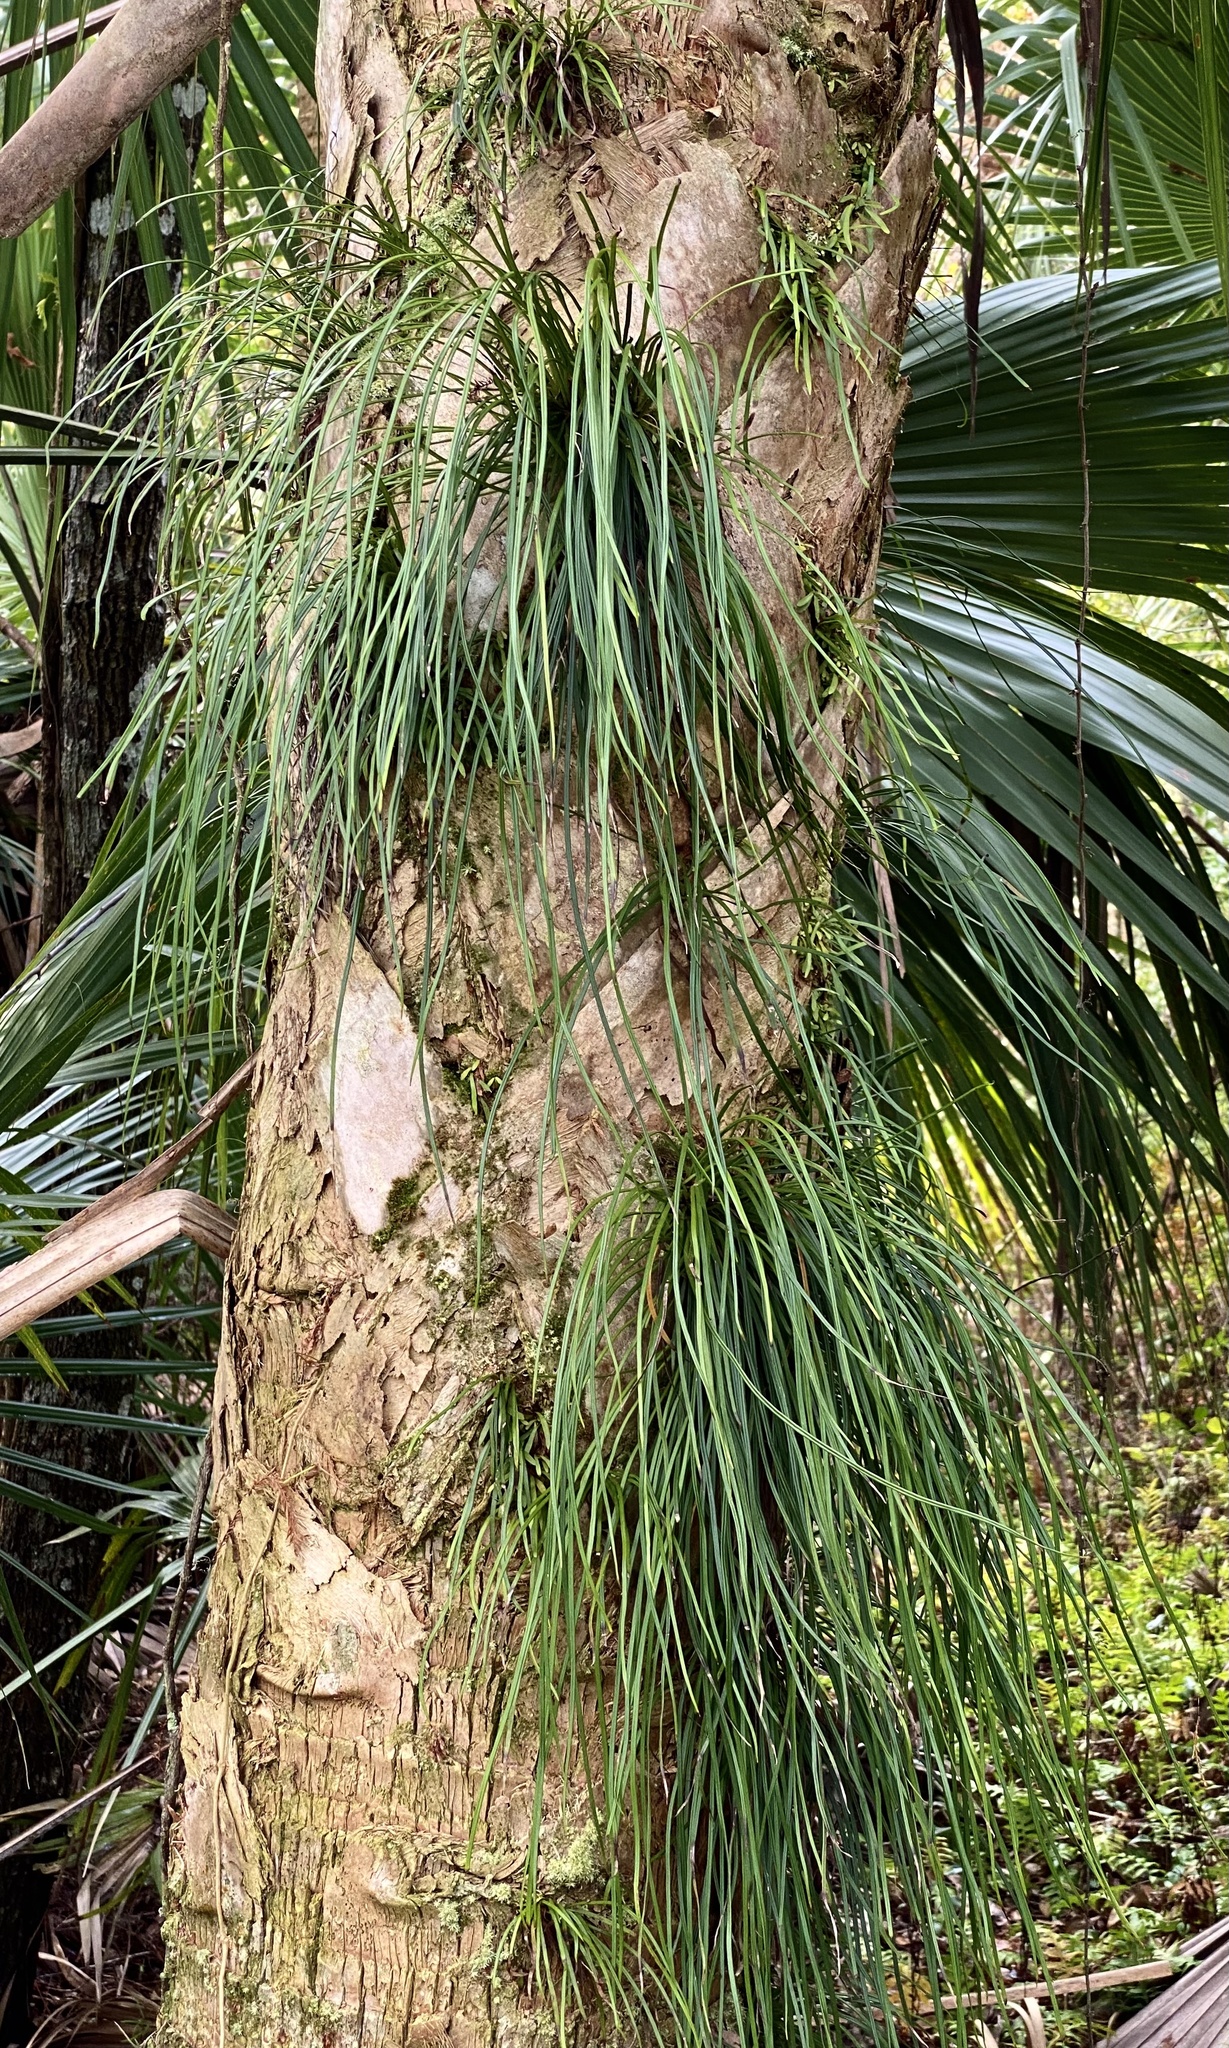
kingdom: Plantae
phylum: Tracheophyta
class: Polypodiopsida
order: Polypodiales
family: Pteridaceae
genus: Vittaria
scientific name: Vittaria lineata
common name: Shoestring fern
